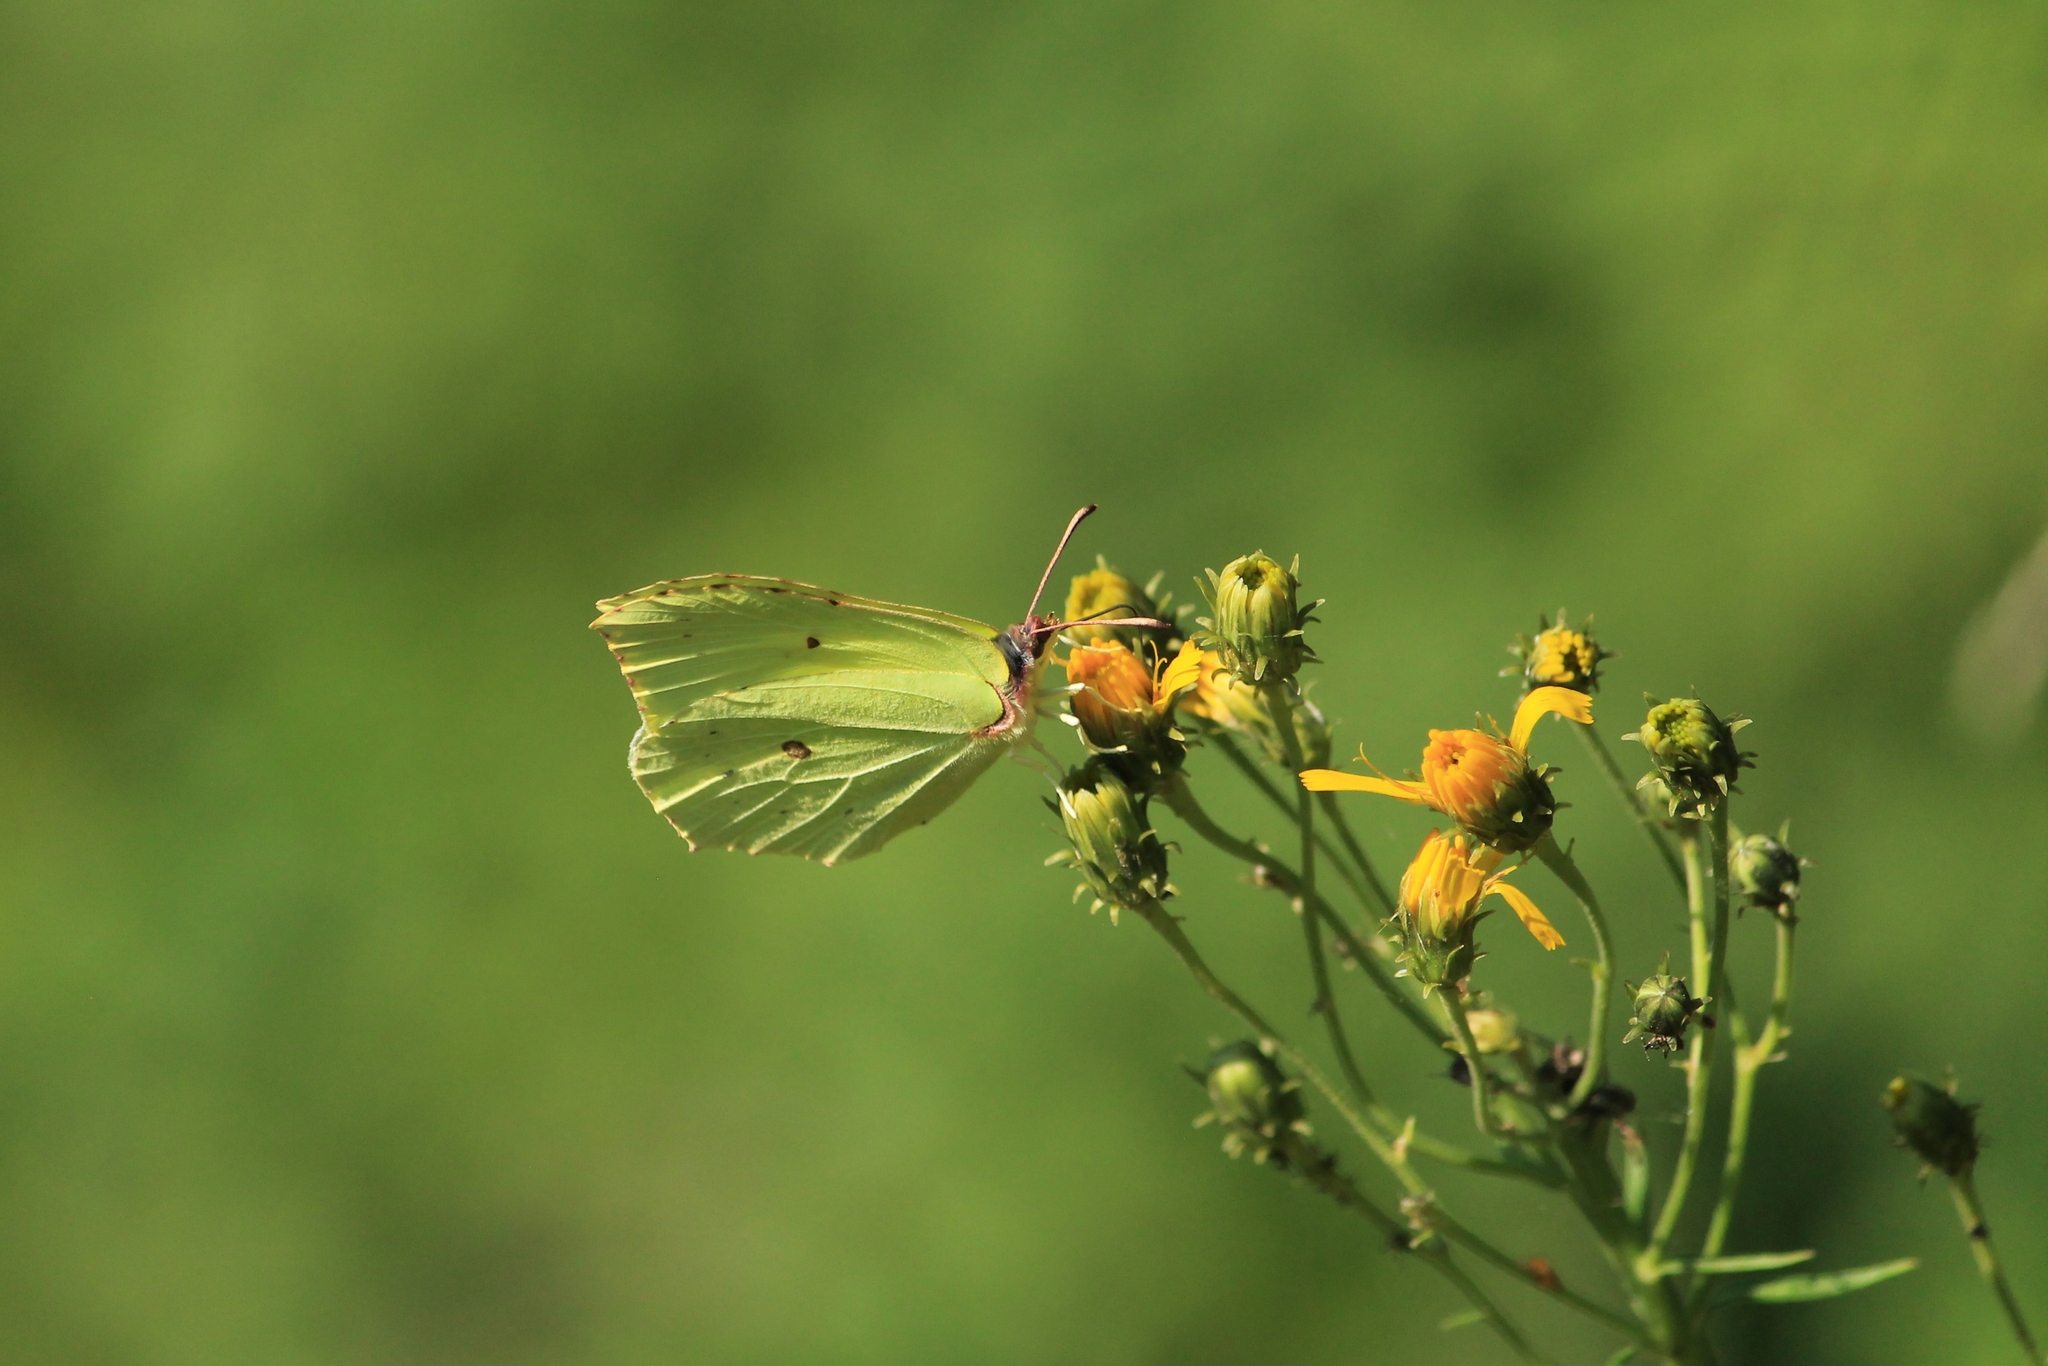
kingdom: Animalia
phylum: Arthropoda
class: Insecta
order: Lepidoptera
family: Pieridae
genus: Gonepteryx
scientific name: Gonepteryx rhamni
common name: Brimstone
